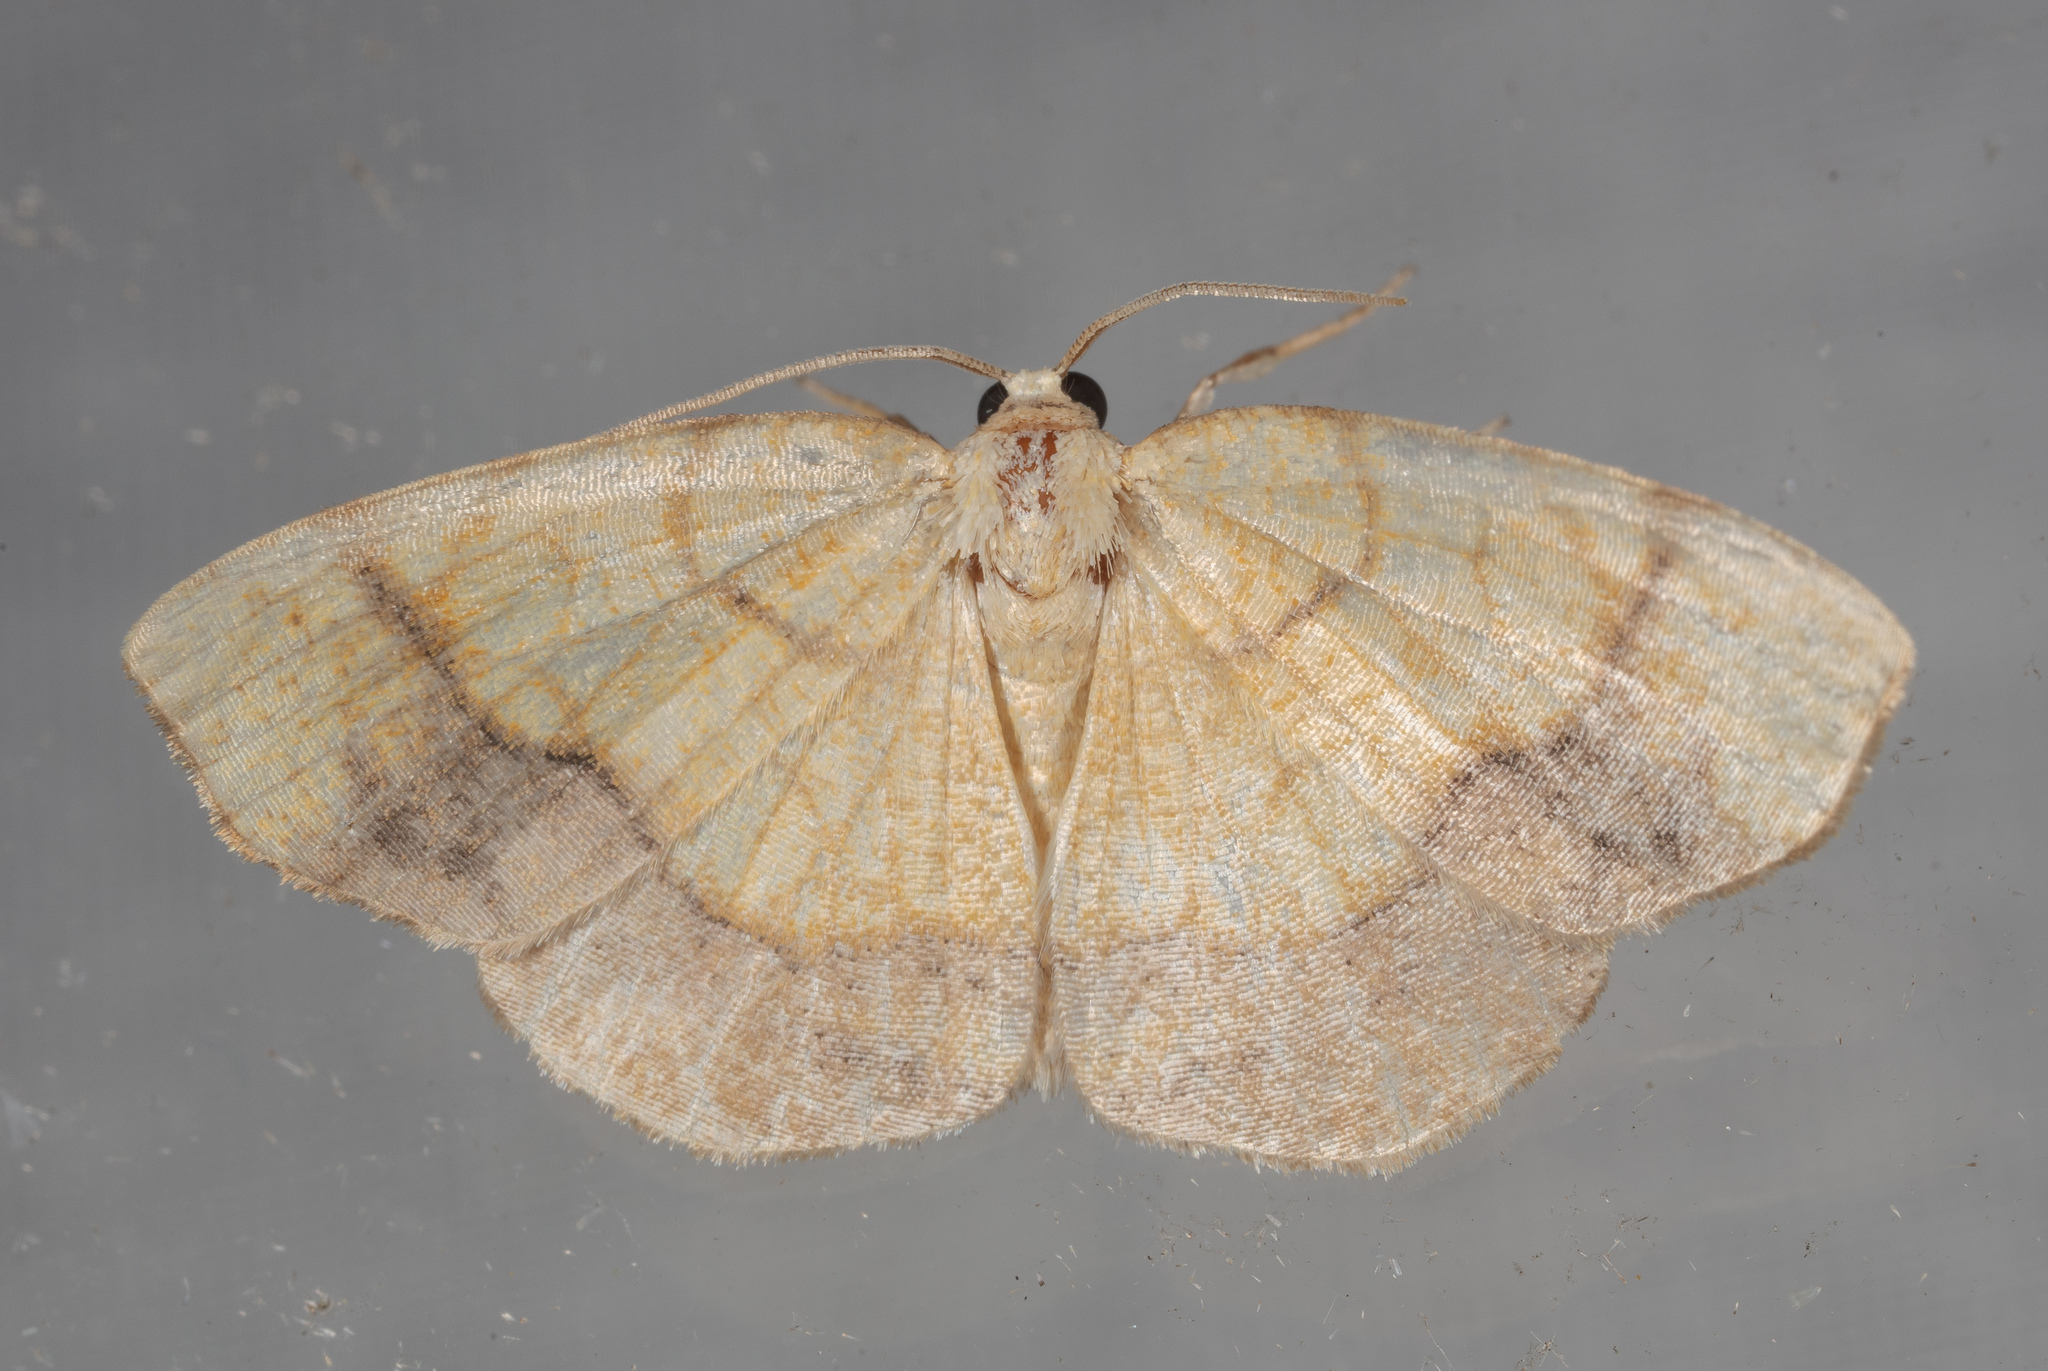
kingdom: Animalia
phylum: Arthropoda
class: Insecta
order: Lepidoptera
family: Geometridae
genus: Nematocampa
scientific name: Nematocampa resistaria
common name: Horned spanworm moth
